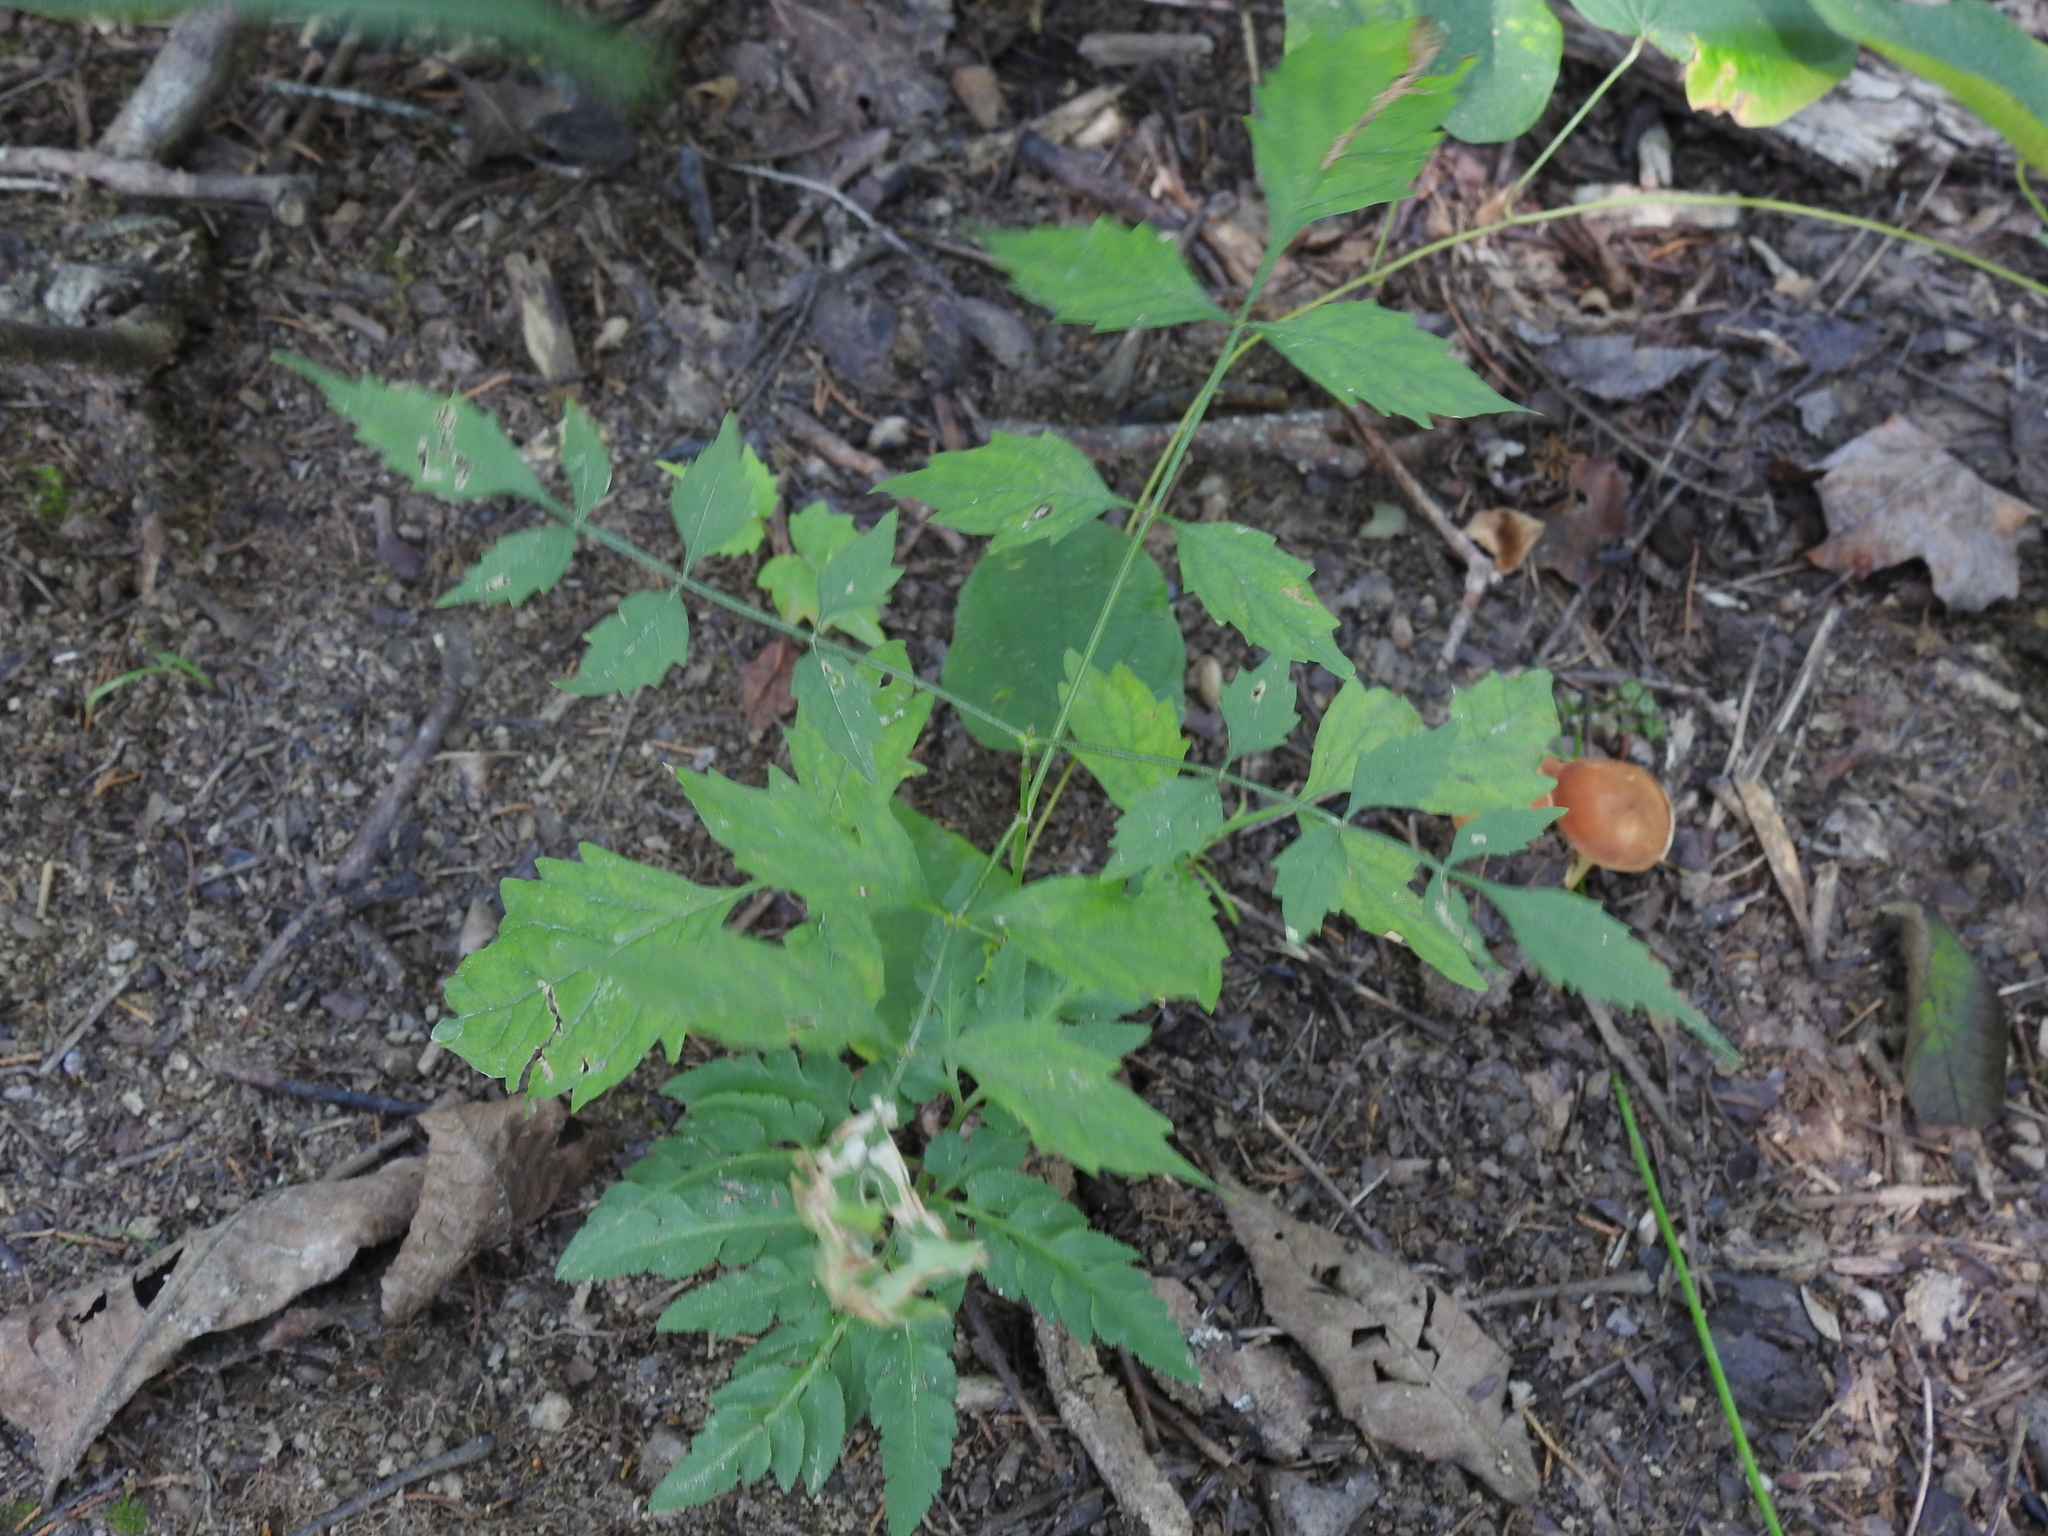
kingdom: Plantae
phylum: Tracheophyta
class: Magnoliopsida
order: Lamiales
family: Bignoniaceae
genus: Campsis
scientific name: Campsis radicans
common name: Trumpet-creeper
